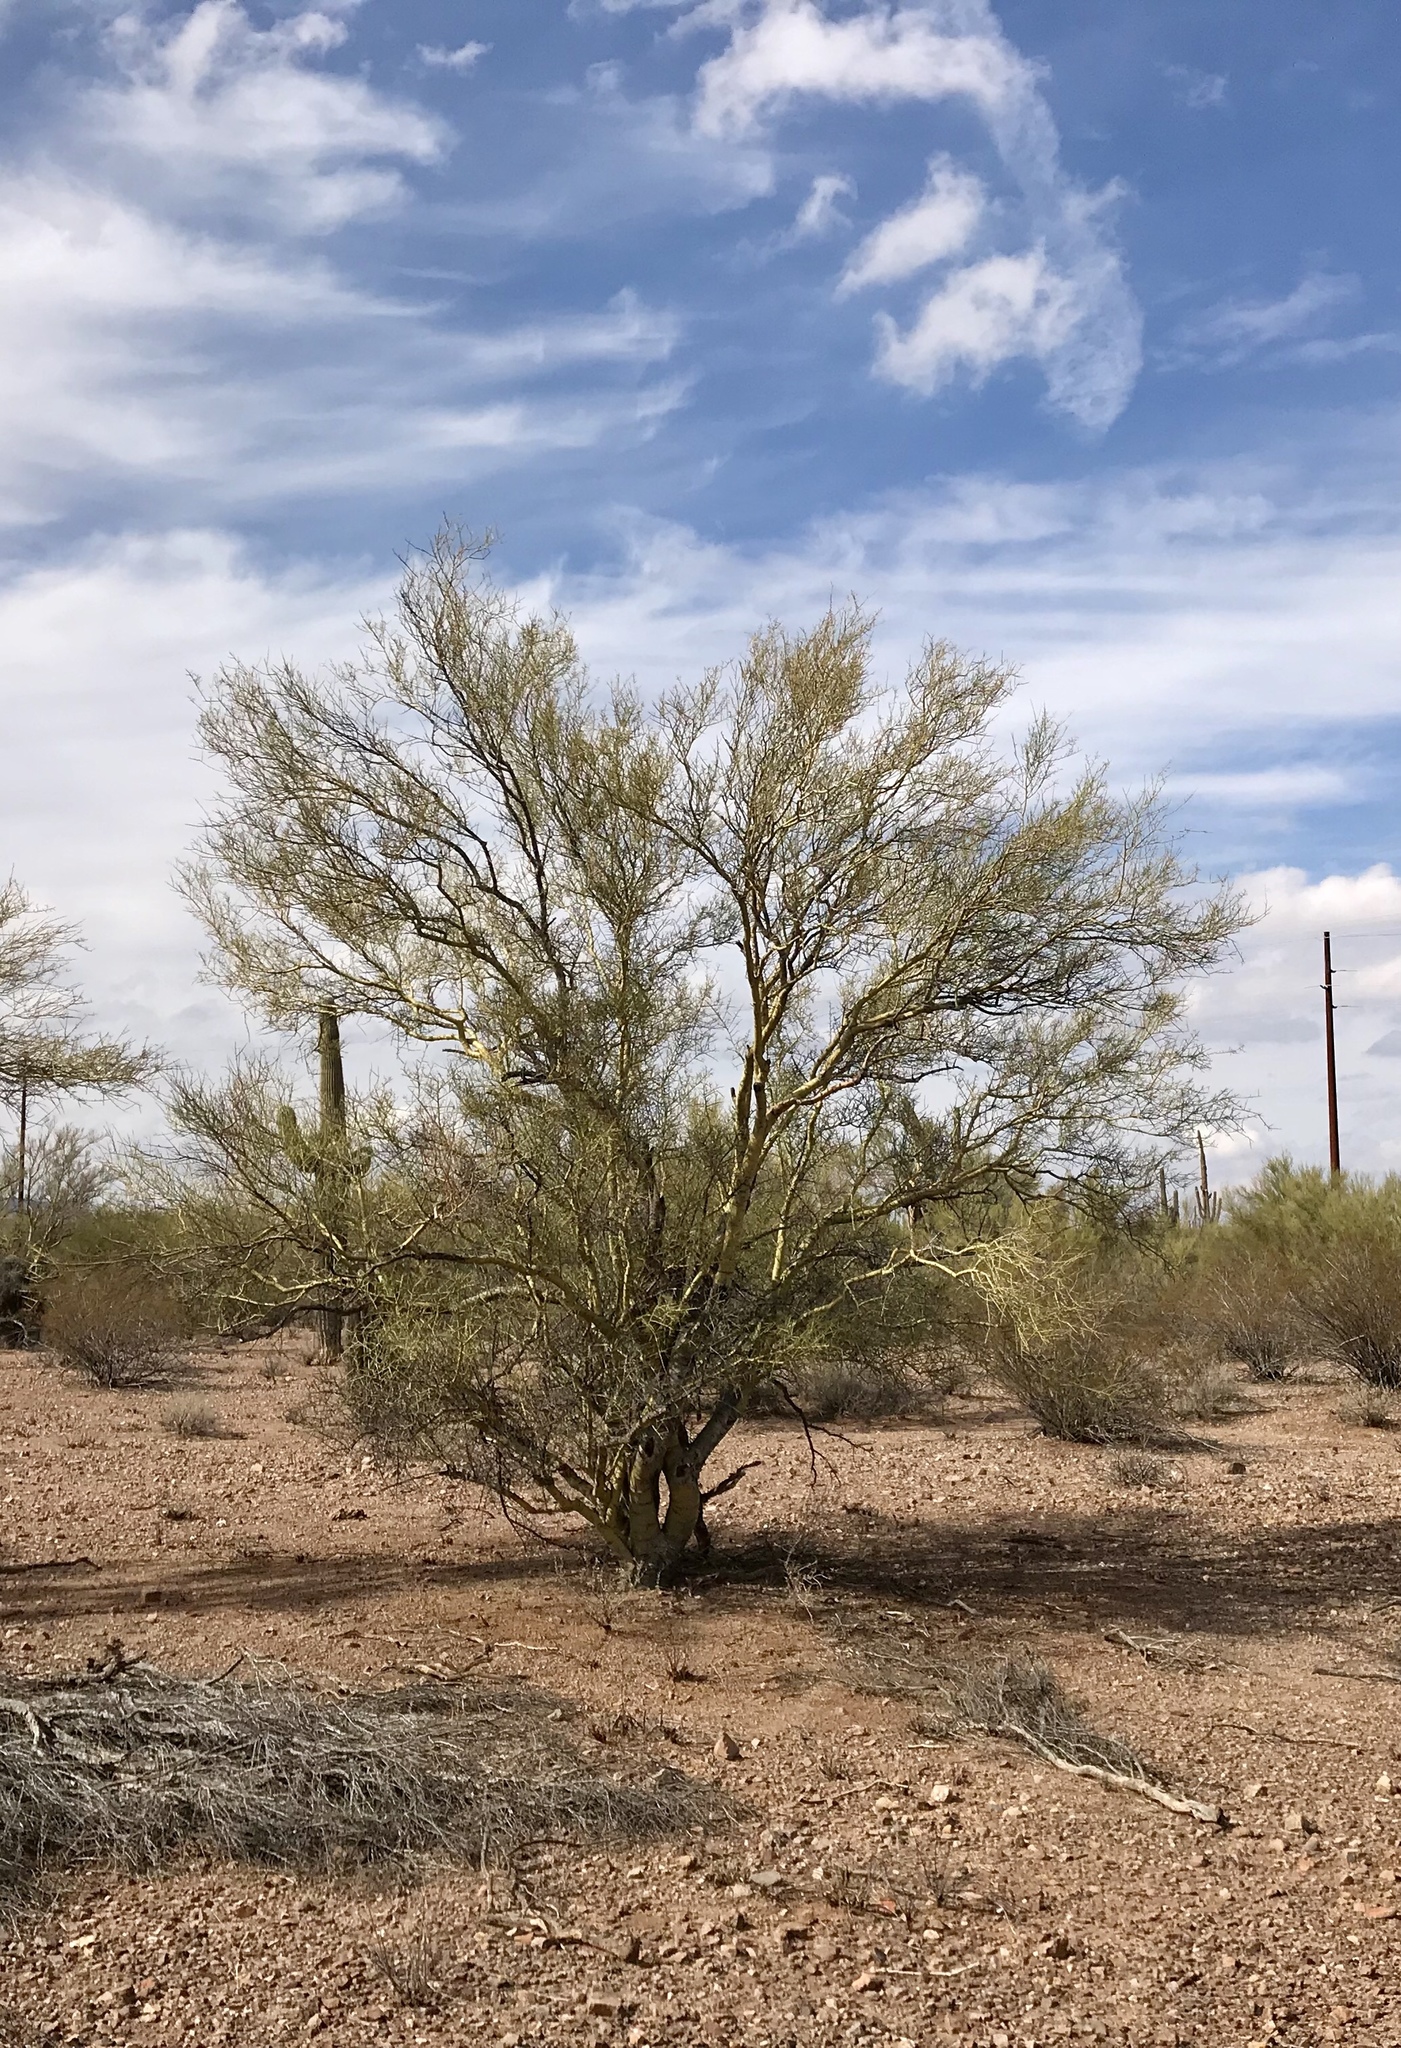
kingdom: Plantae
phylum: Tracheophyta
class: Magnoliopsida
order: Fabales
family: Fabaceae
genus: Parkinsonia
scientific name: Parkinsonia microphylla
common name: Yellow paloverde
